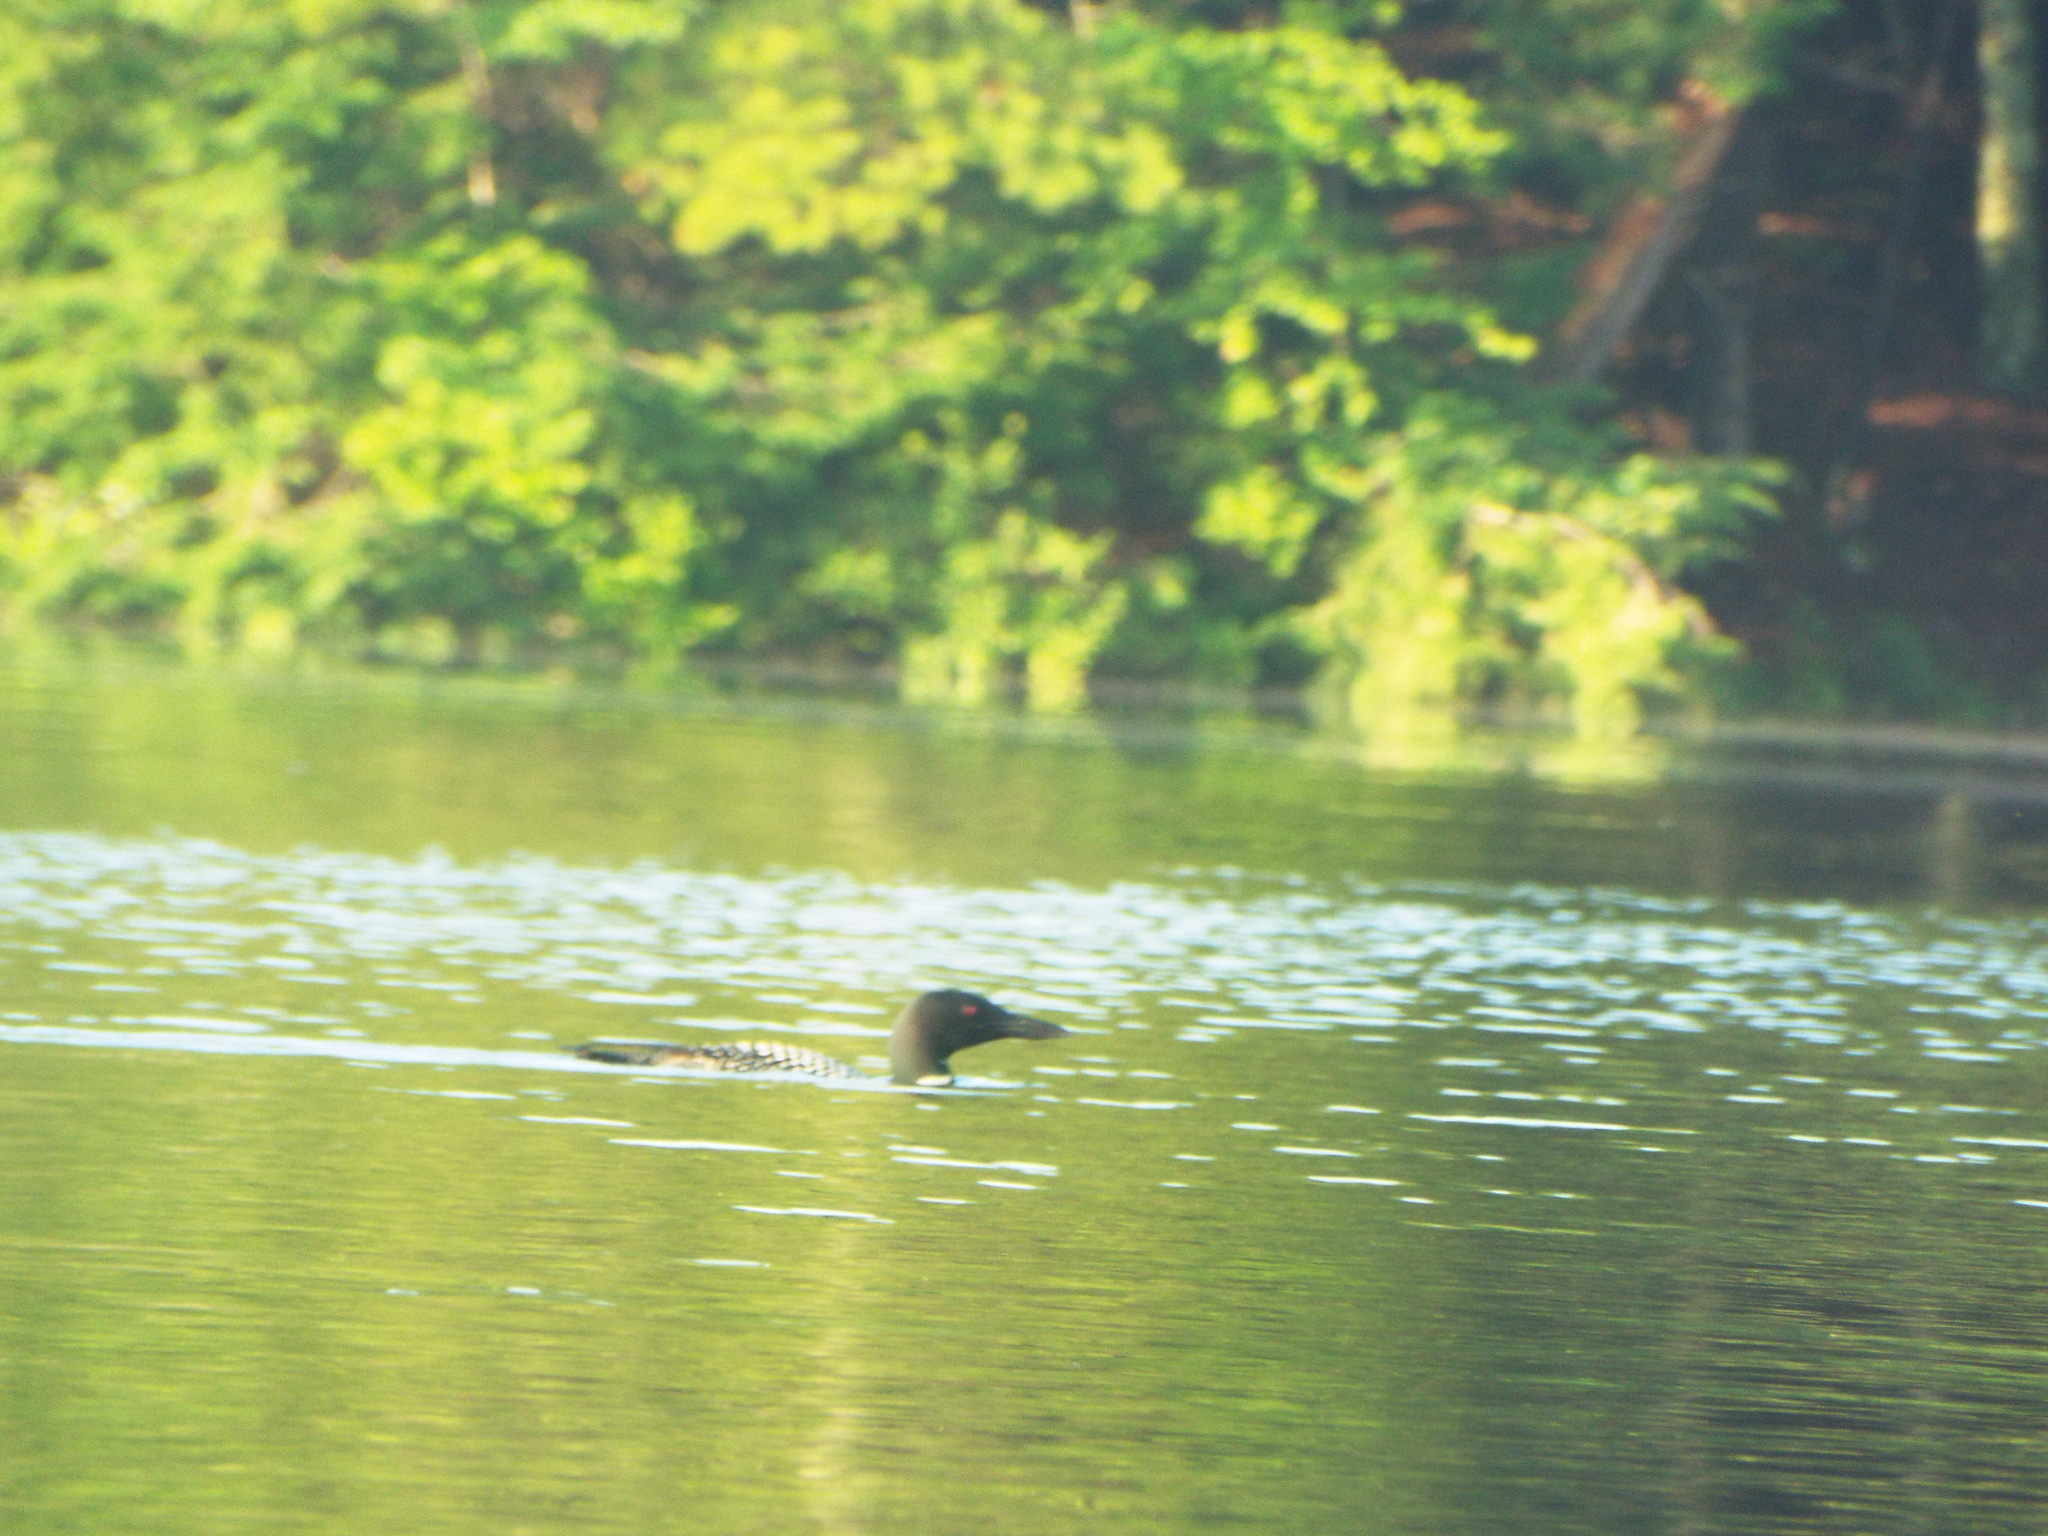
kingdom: Animalia
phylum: Chordata
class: Aves
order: Gaviiformes
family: Gaviidae
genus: Gavia
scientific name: Gavia immer
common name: Common loon
